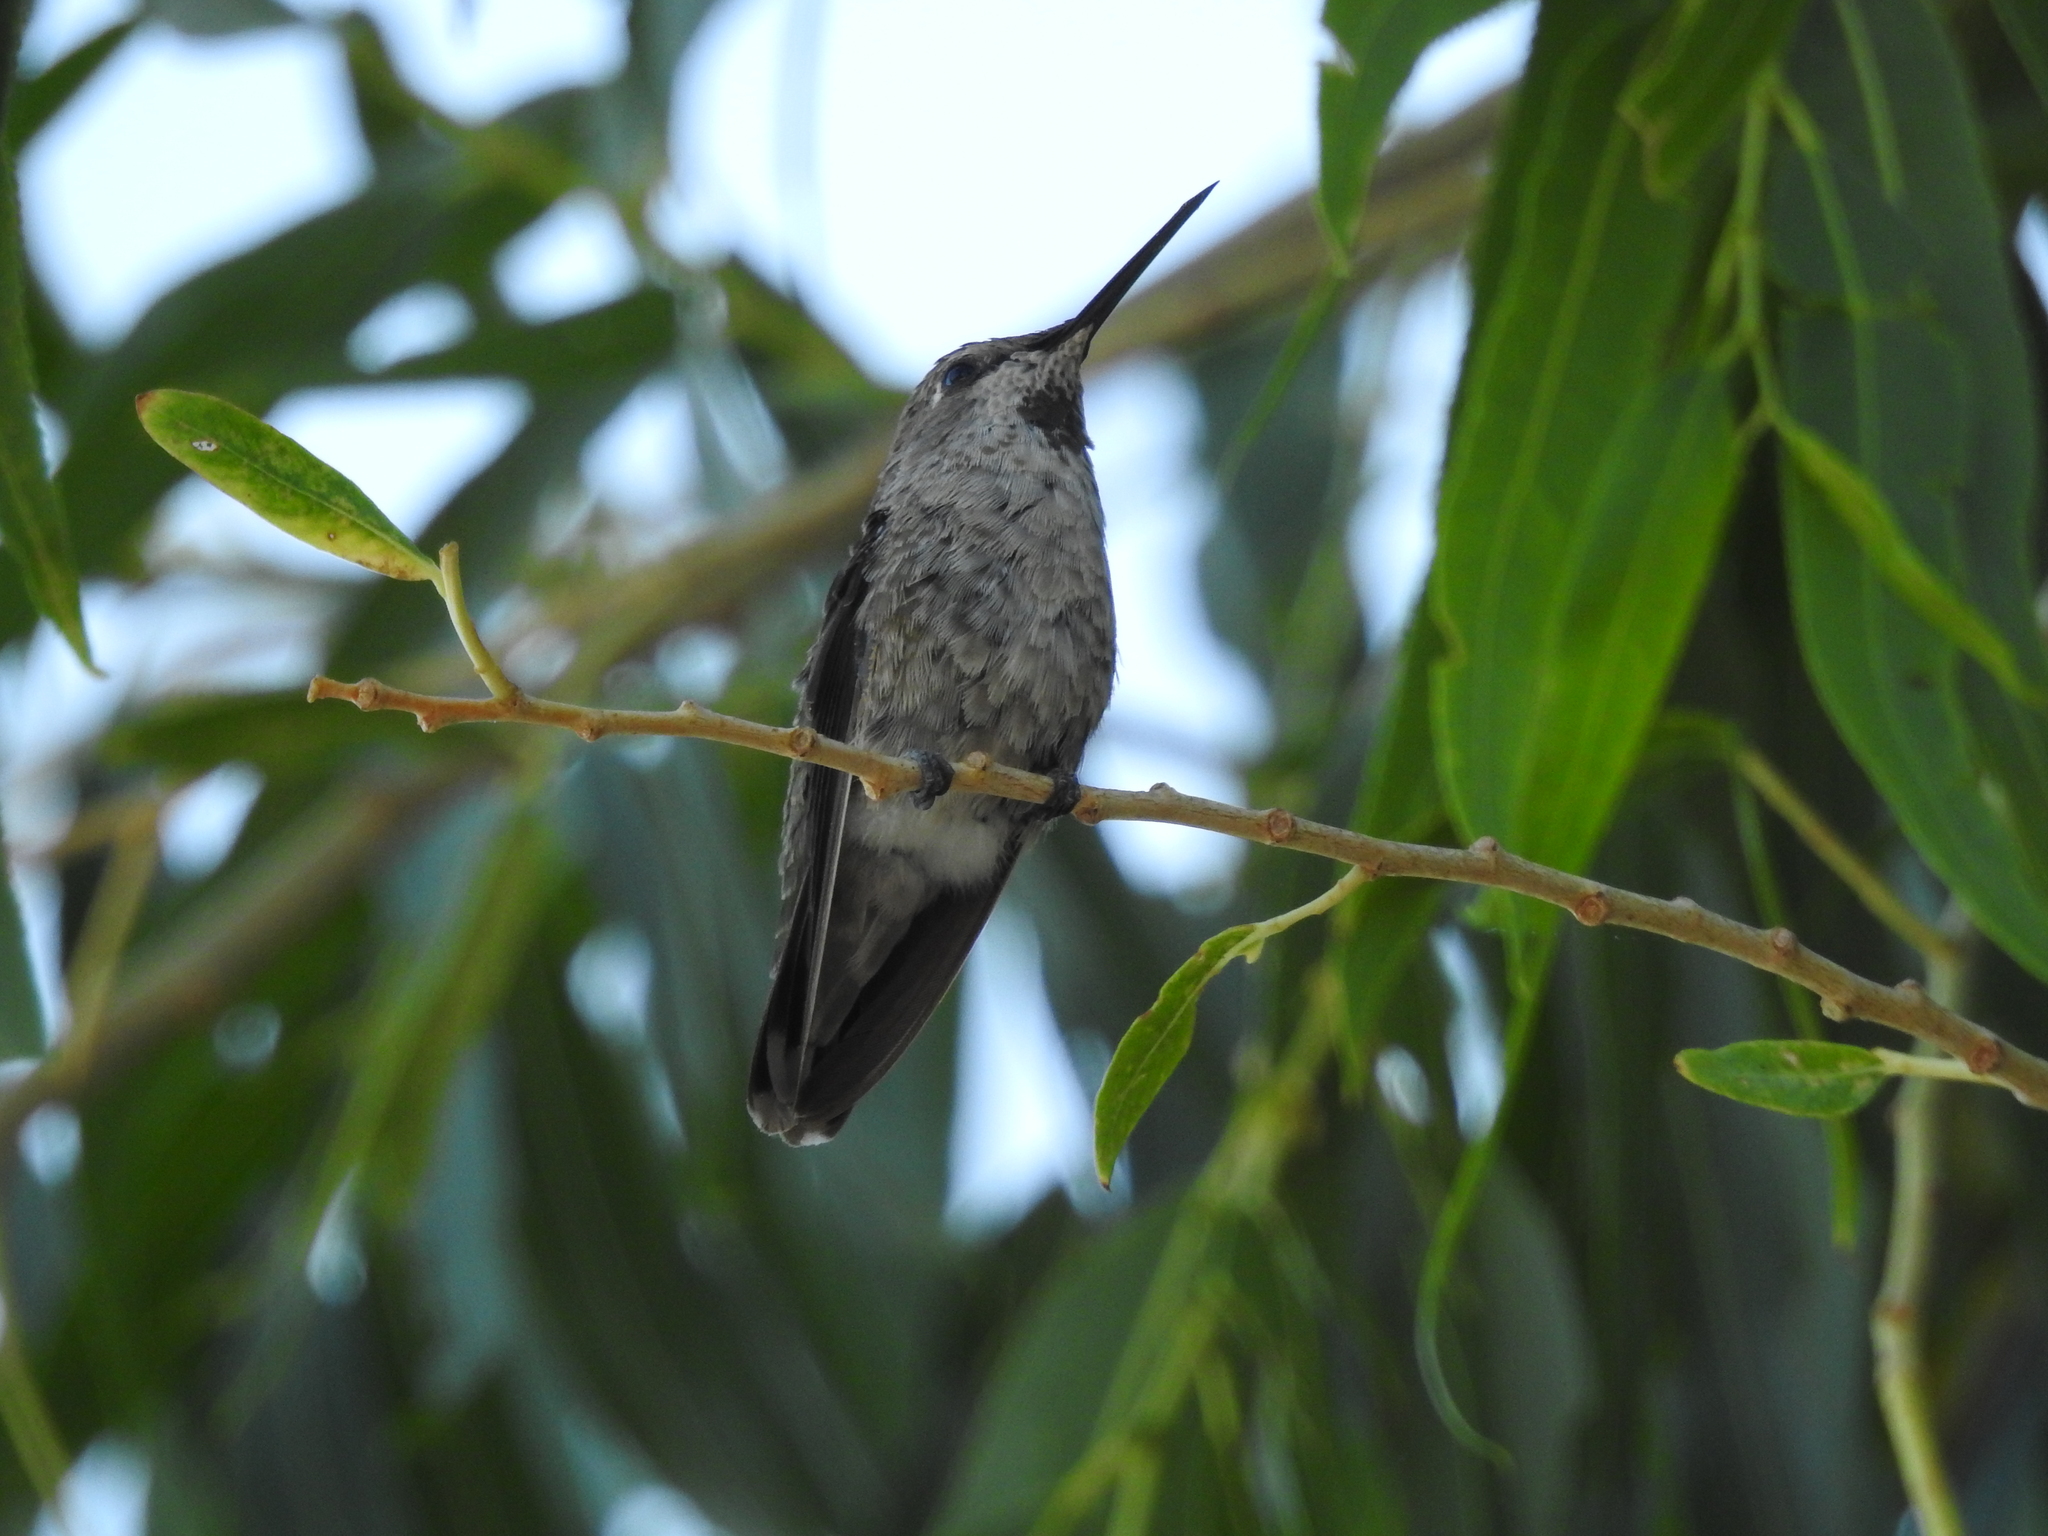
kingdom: Animalia
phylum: Chordata
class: Aves
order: Apodiformes
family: Trochilidae
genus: Calypte
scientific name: Calypte anna
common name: Anna's hummingbird
